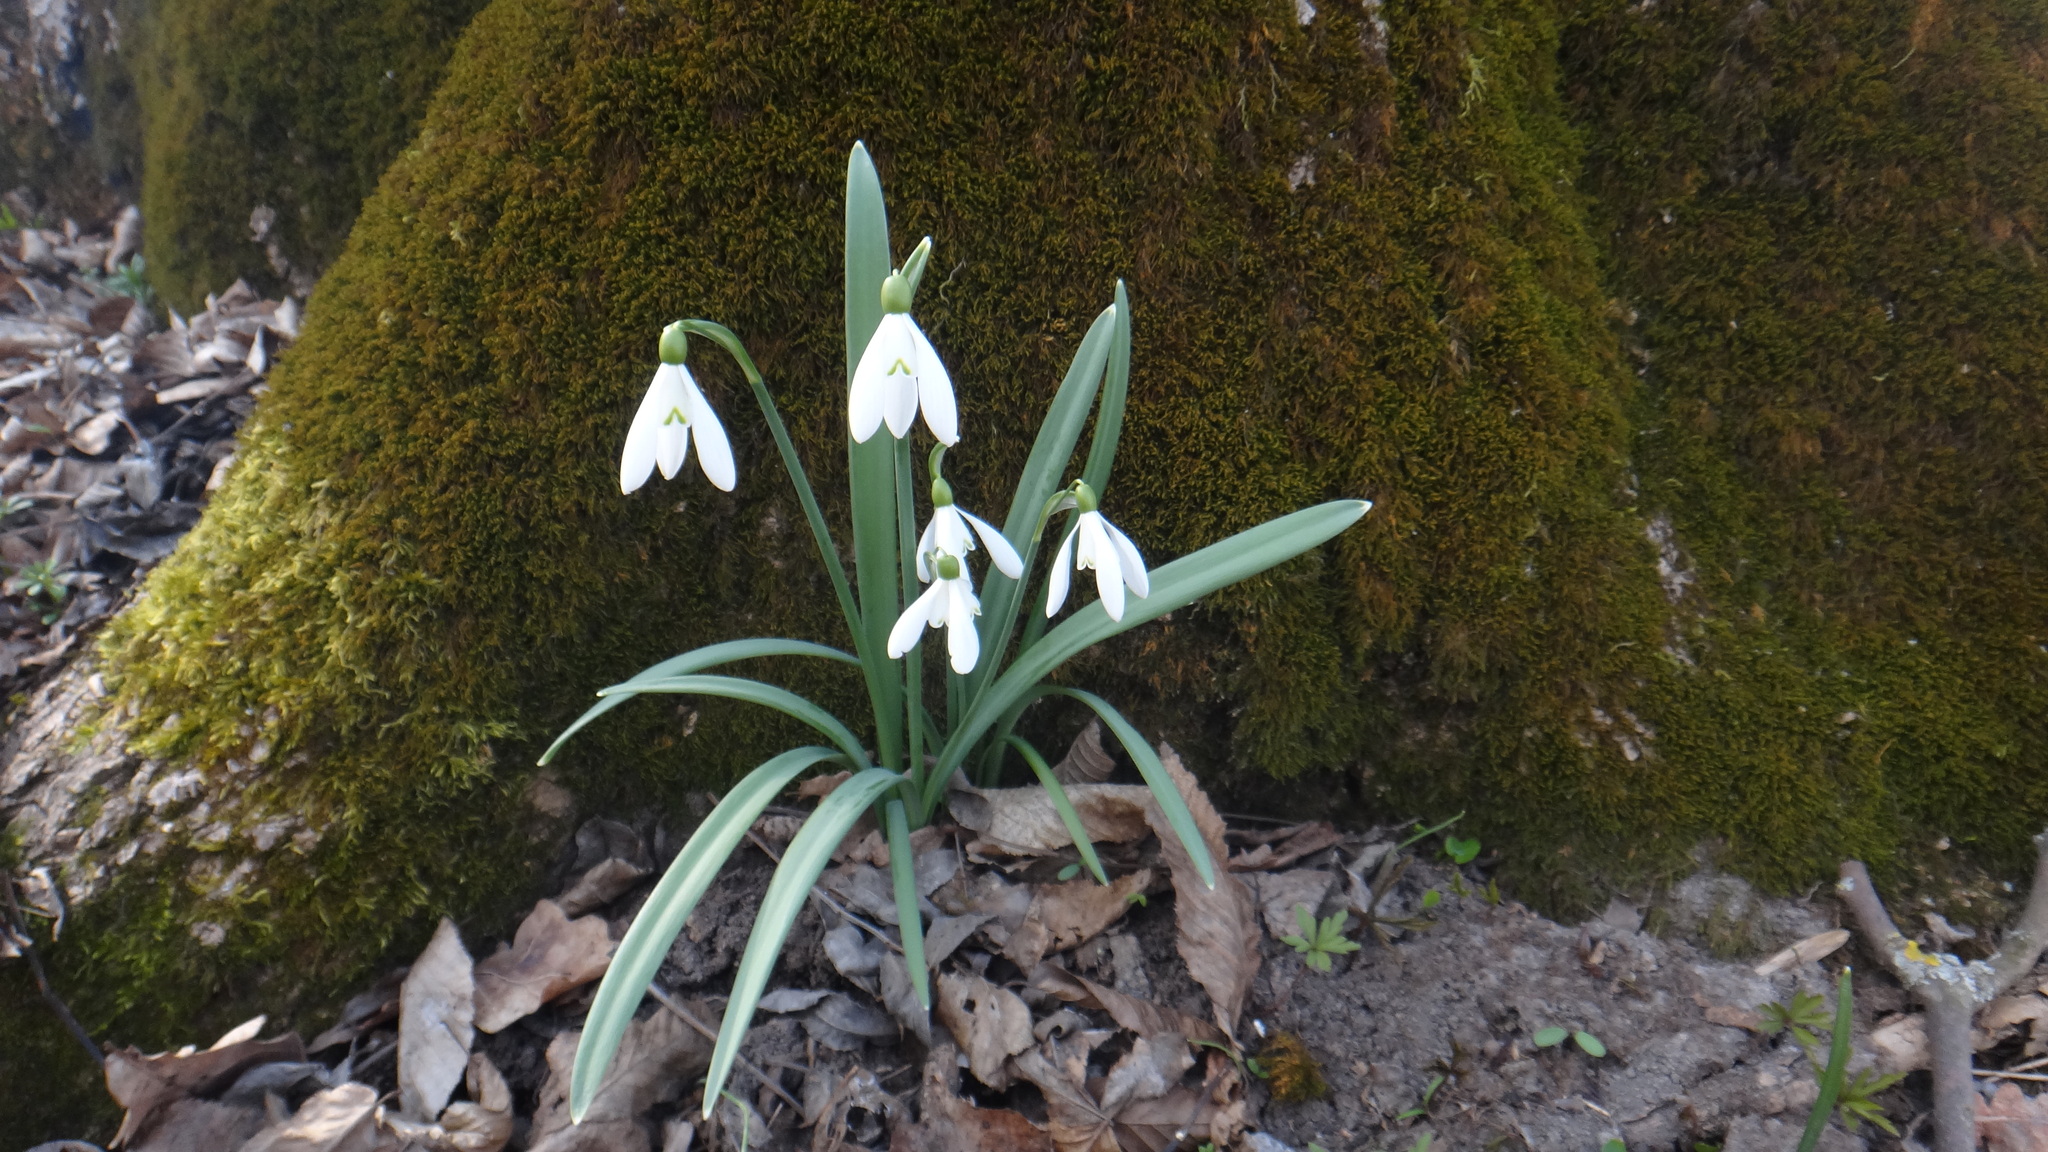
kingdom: Plantae
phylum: Tracheophyta
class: Liliopsida
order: Asparagales
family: Amaryllidaceae
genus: Galanthus
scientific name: Galanthus nivalis
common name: Snowdrop
